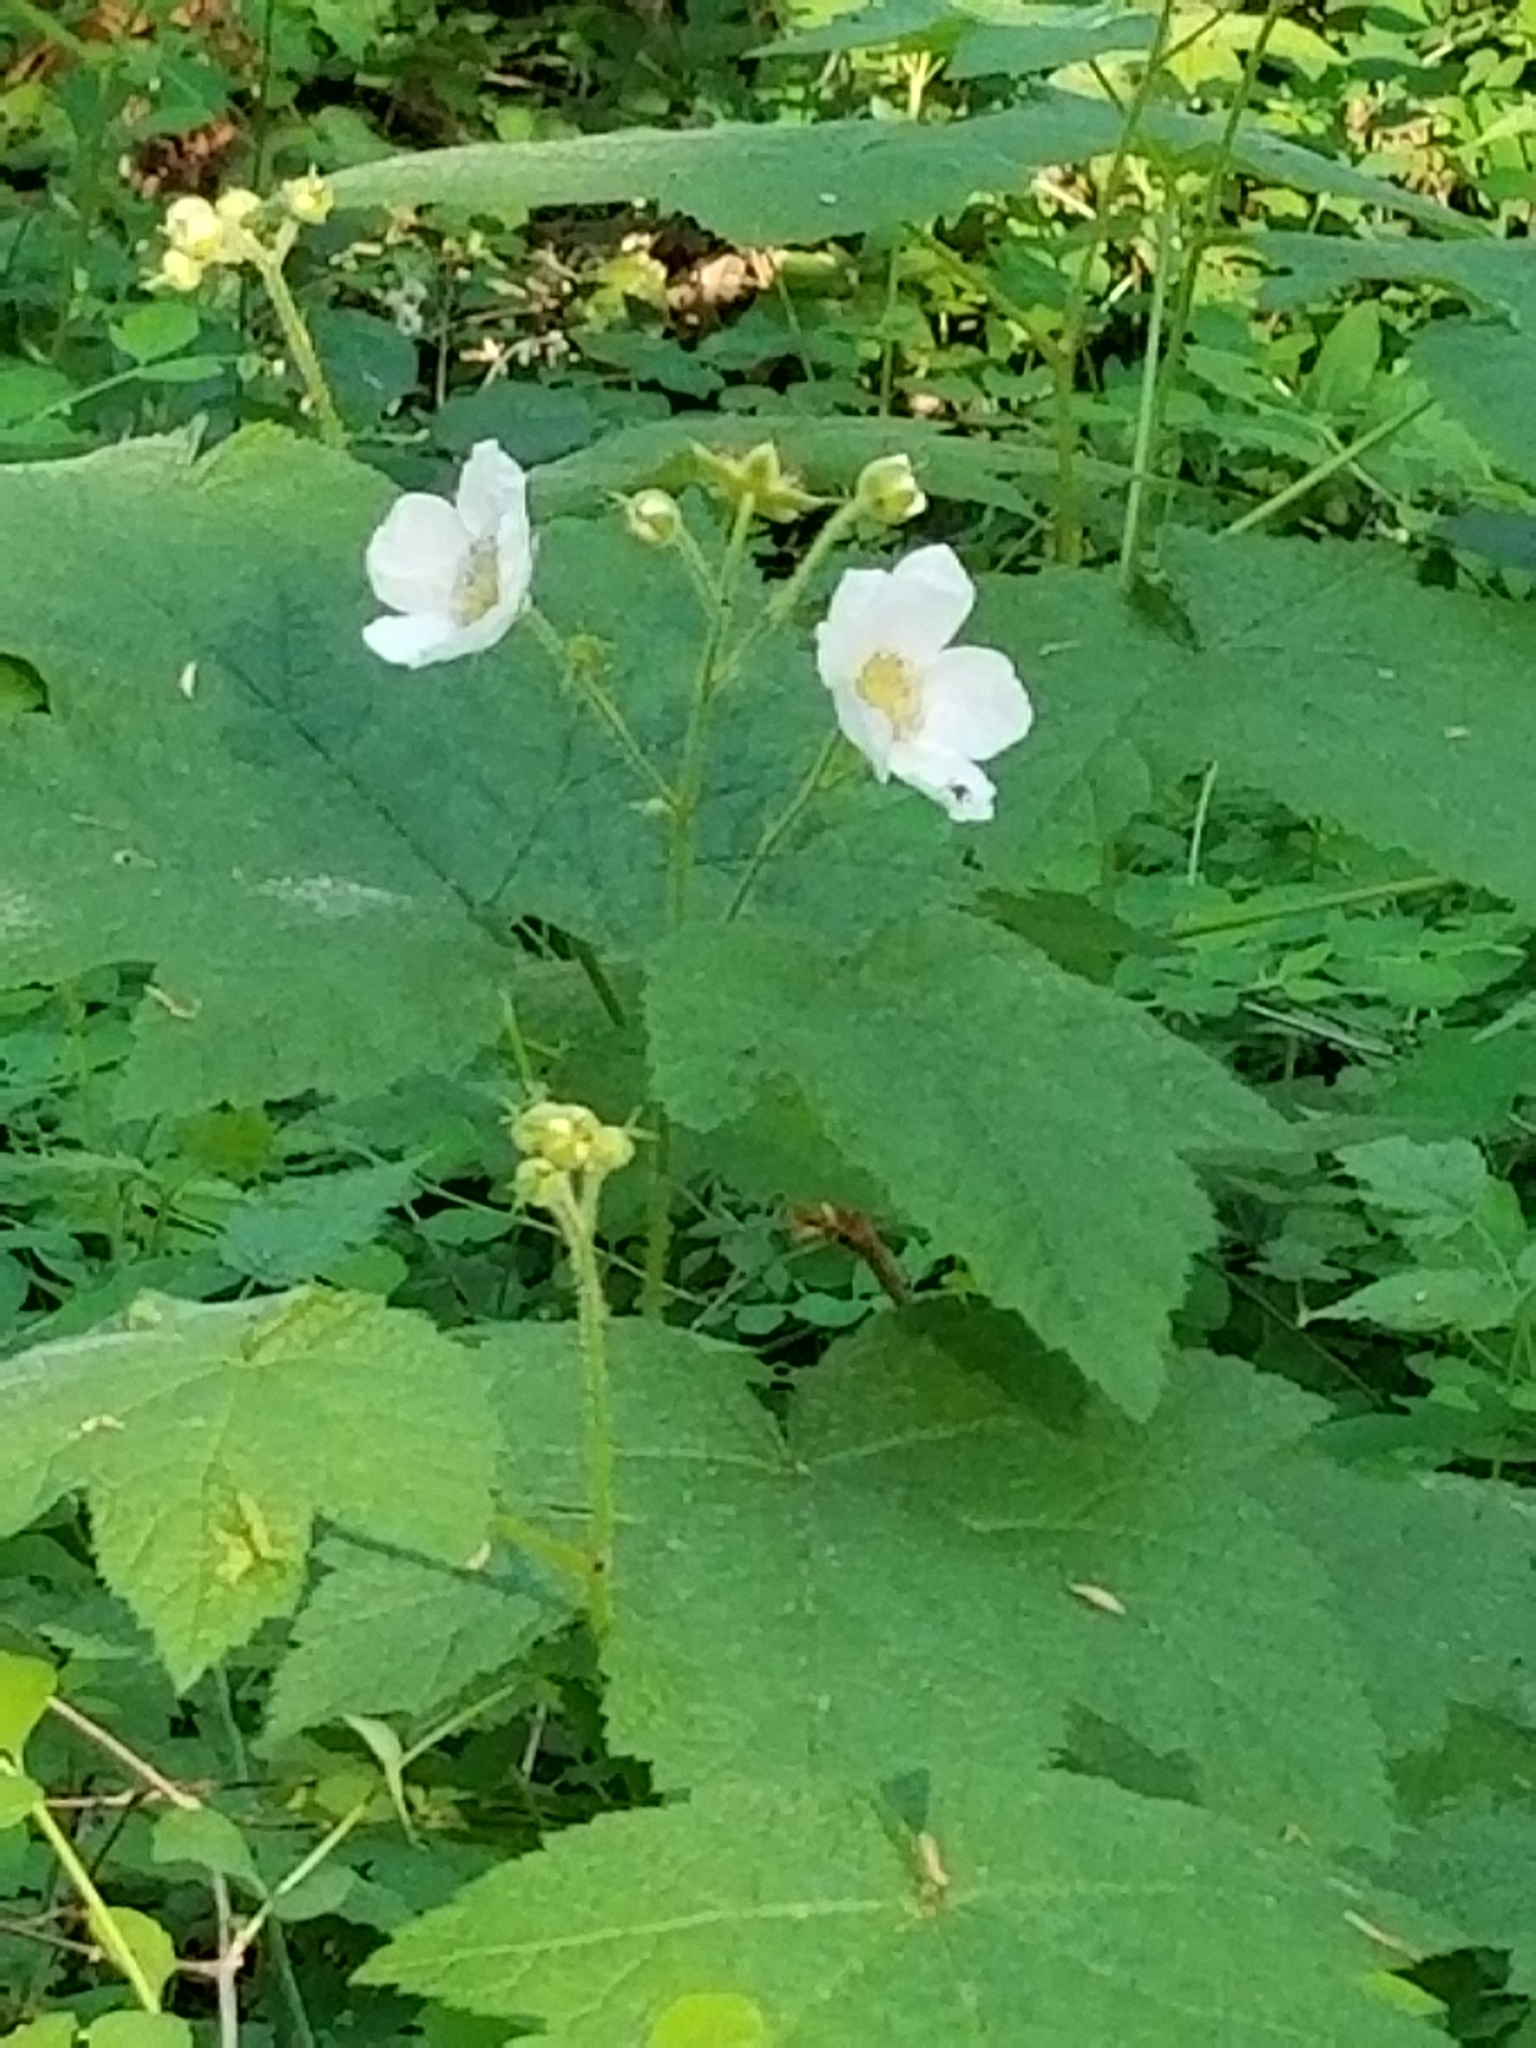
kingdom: Plantae
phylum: Tracheophyta
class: Magnoliopsida
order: Rosales
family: Rosaceae
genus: Rubus
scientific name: Rubus parviflorus
